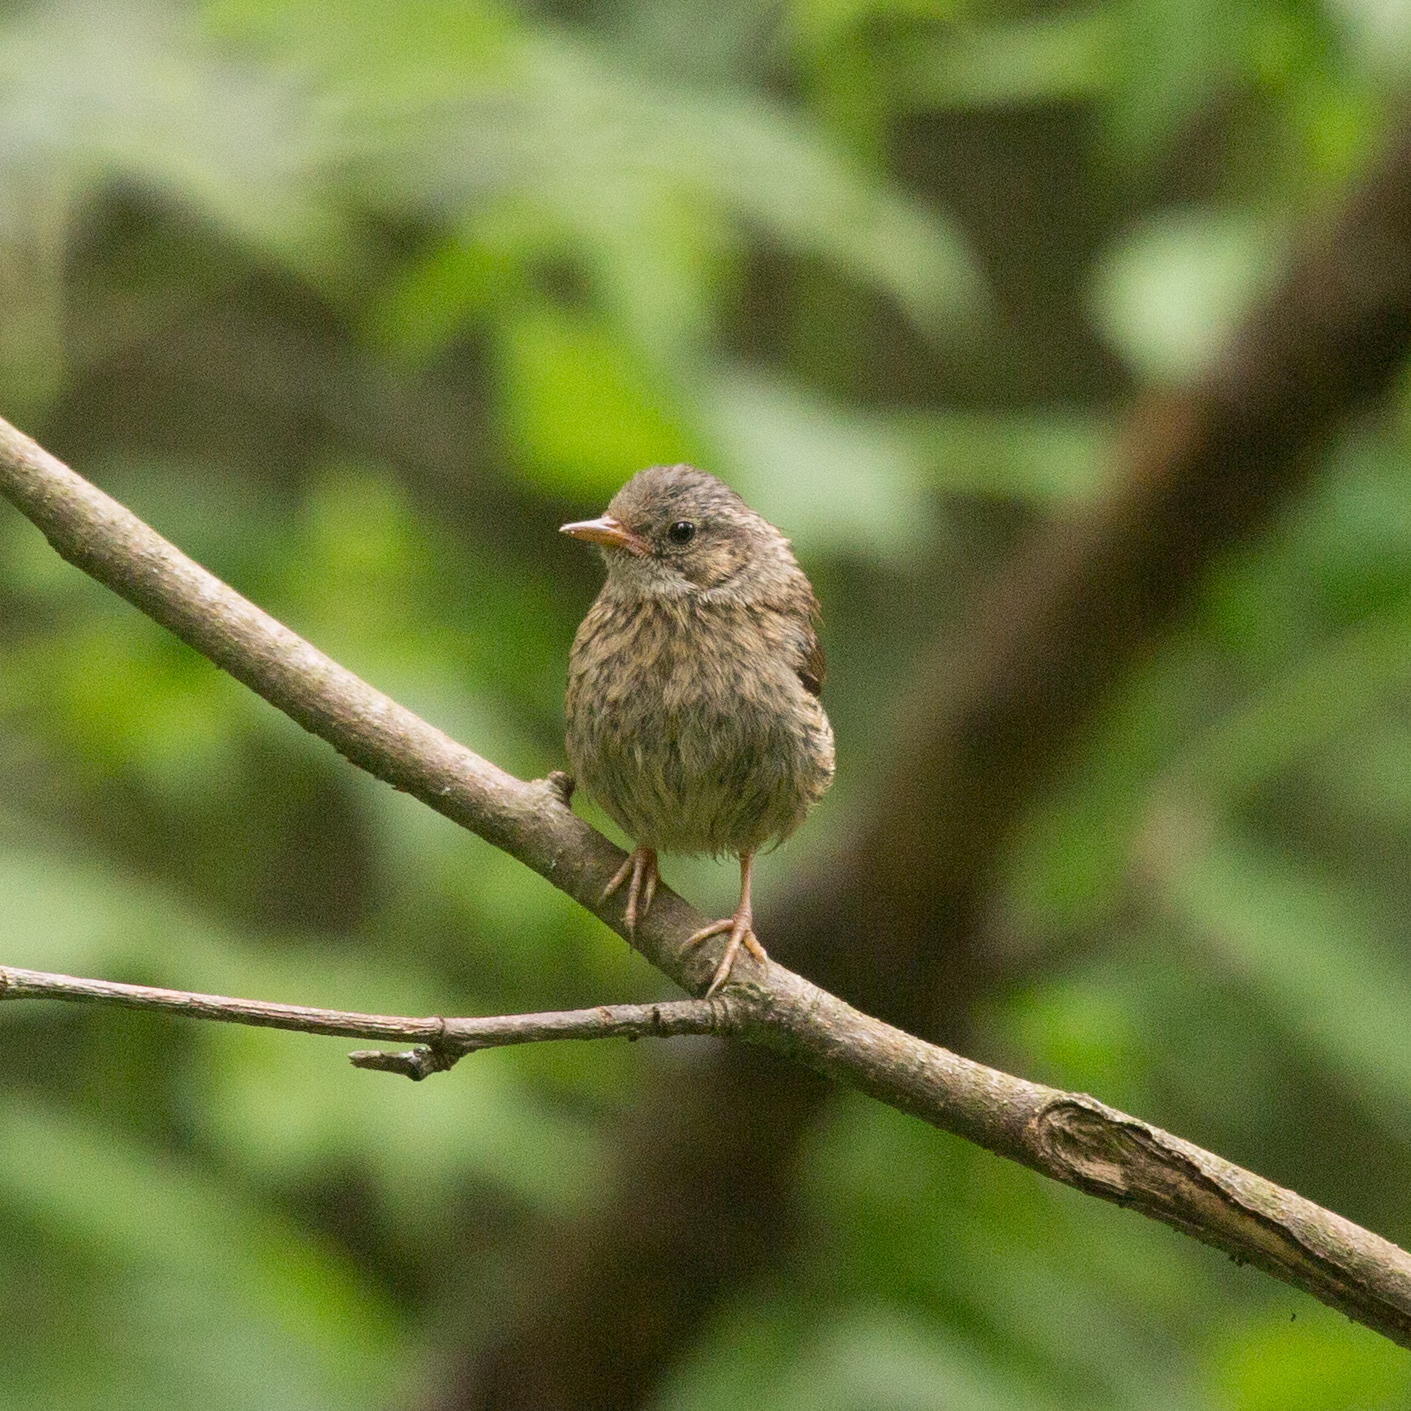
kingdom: Animalia
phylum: Chordata
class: Aves
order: Passeriformes
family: Prunellidae
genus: Prunella
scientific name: Prunella modularis
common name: Dunnock
